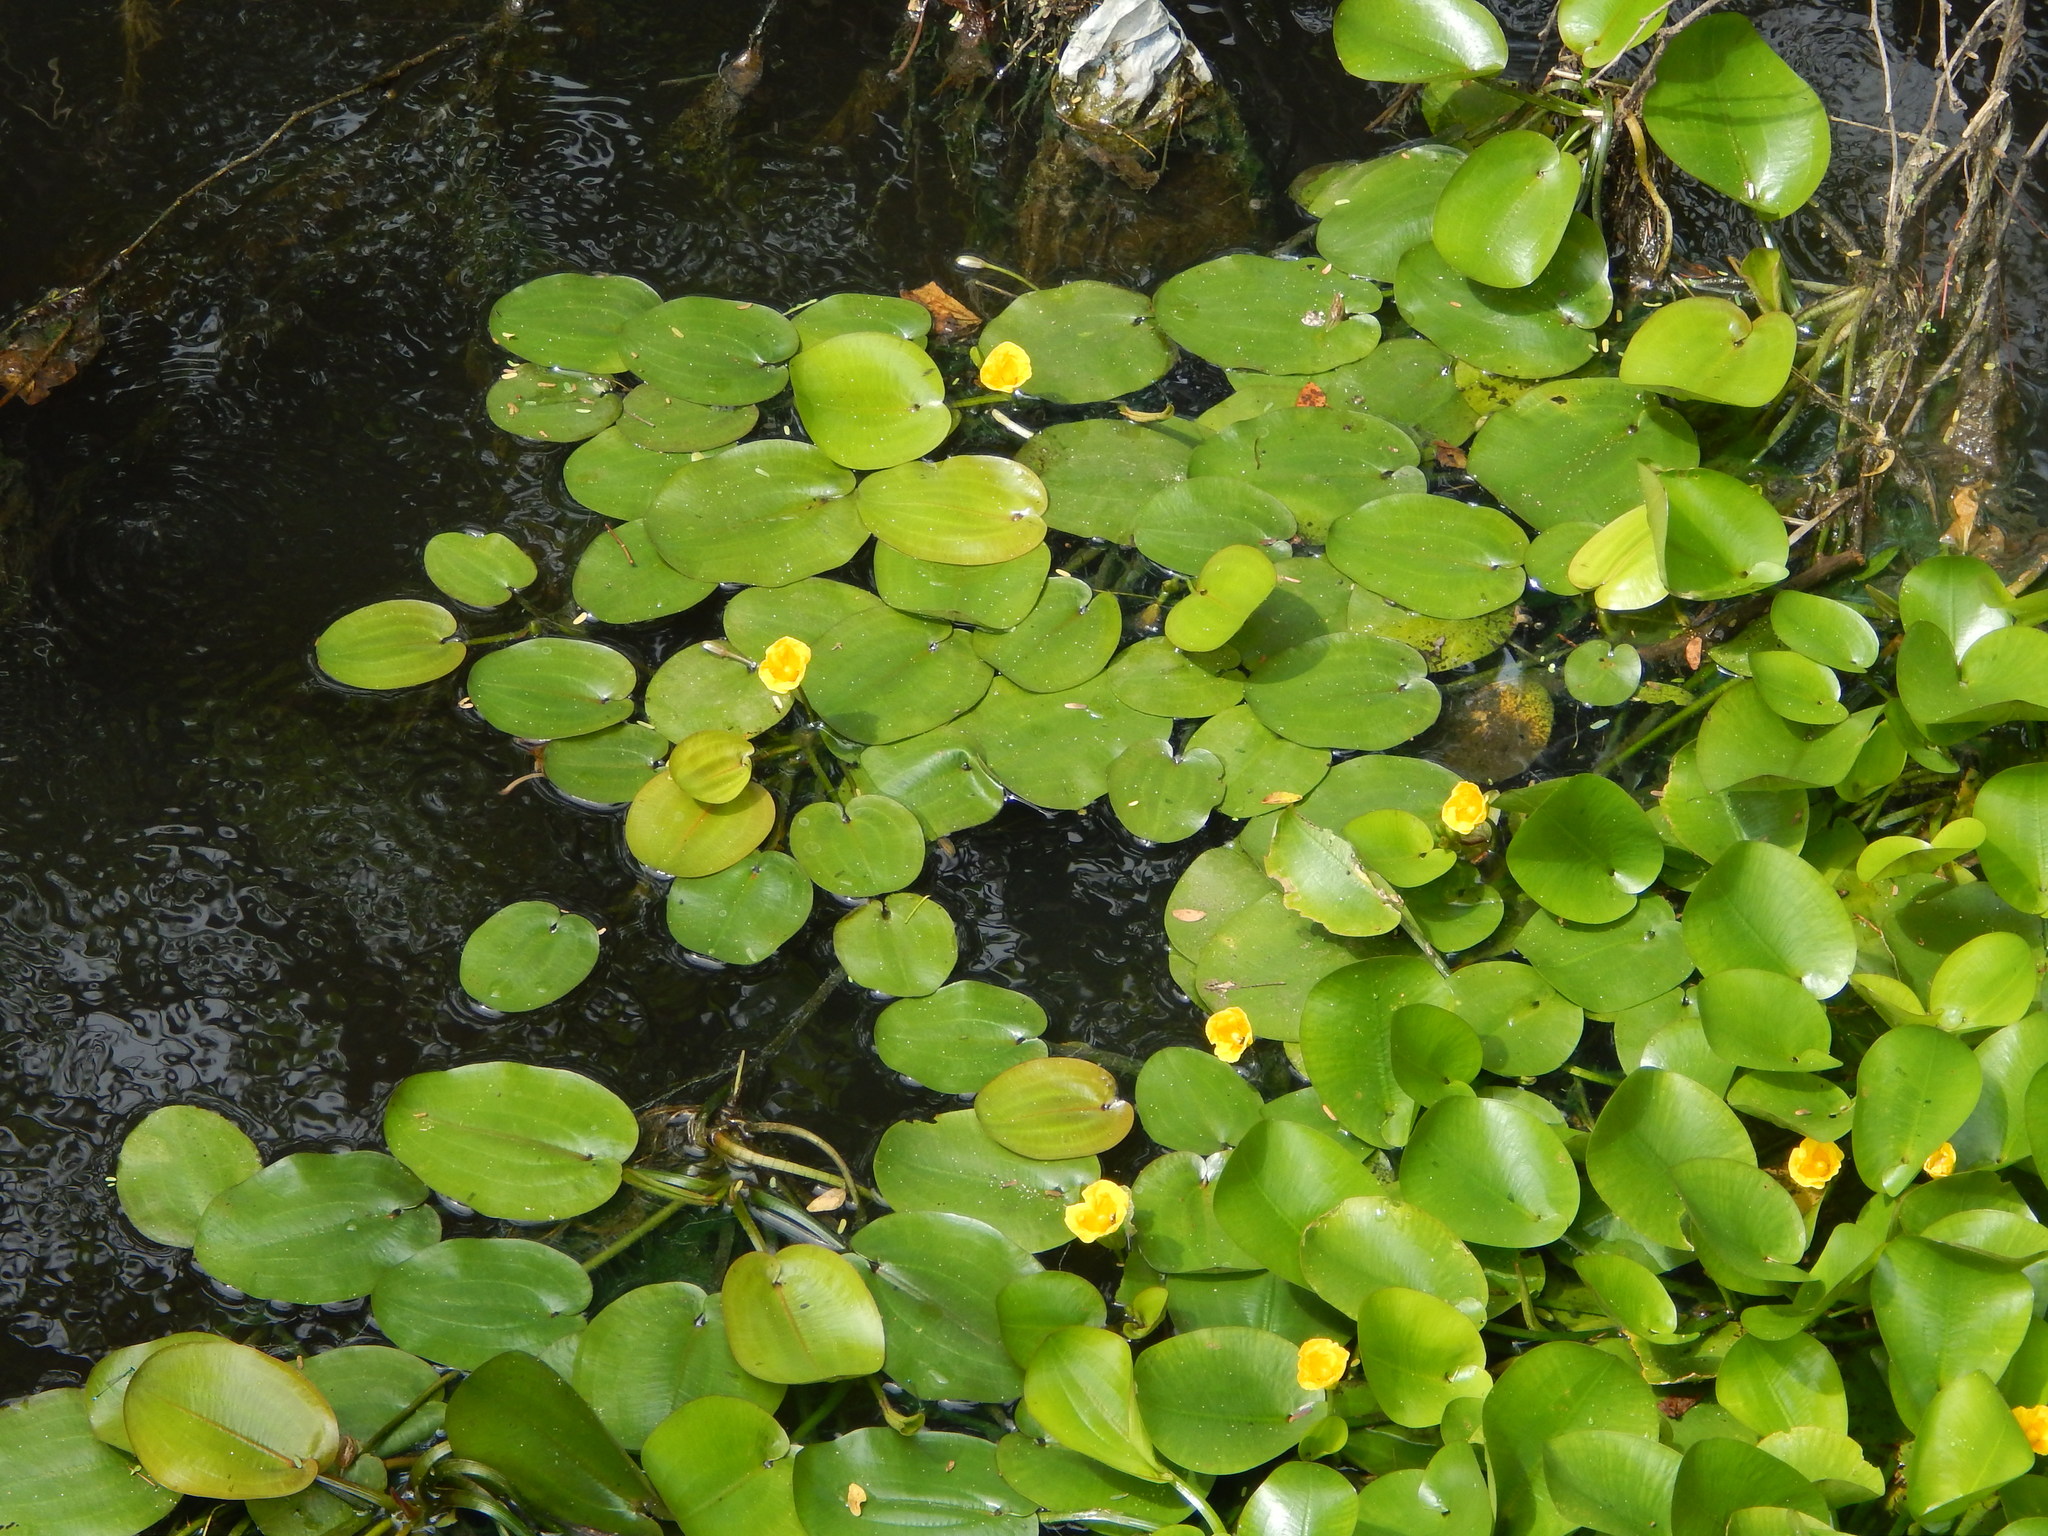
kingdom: Plantae
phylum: Tracheophyta
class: Liliopsida
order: Alismatales
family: Alismataceae
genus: Hydrocleys
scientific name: Hydrocleys martii
